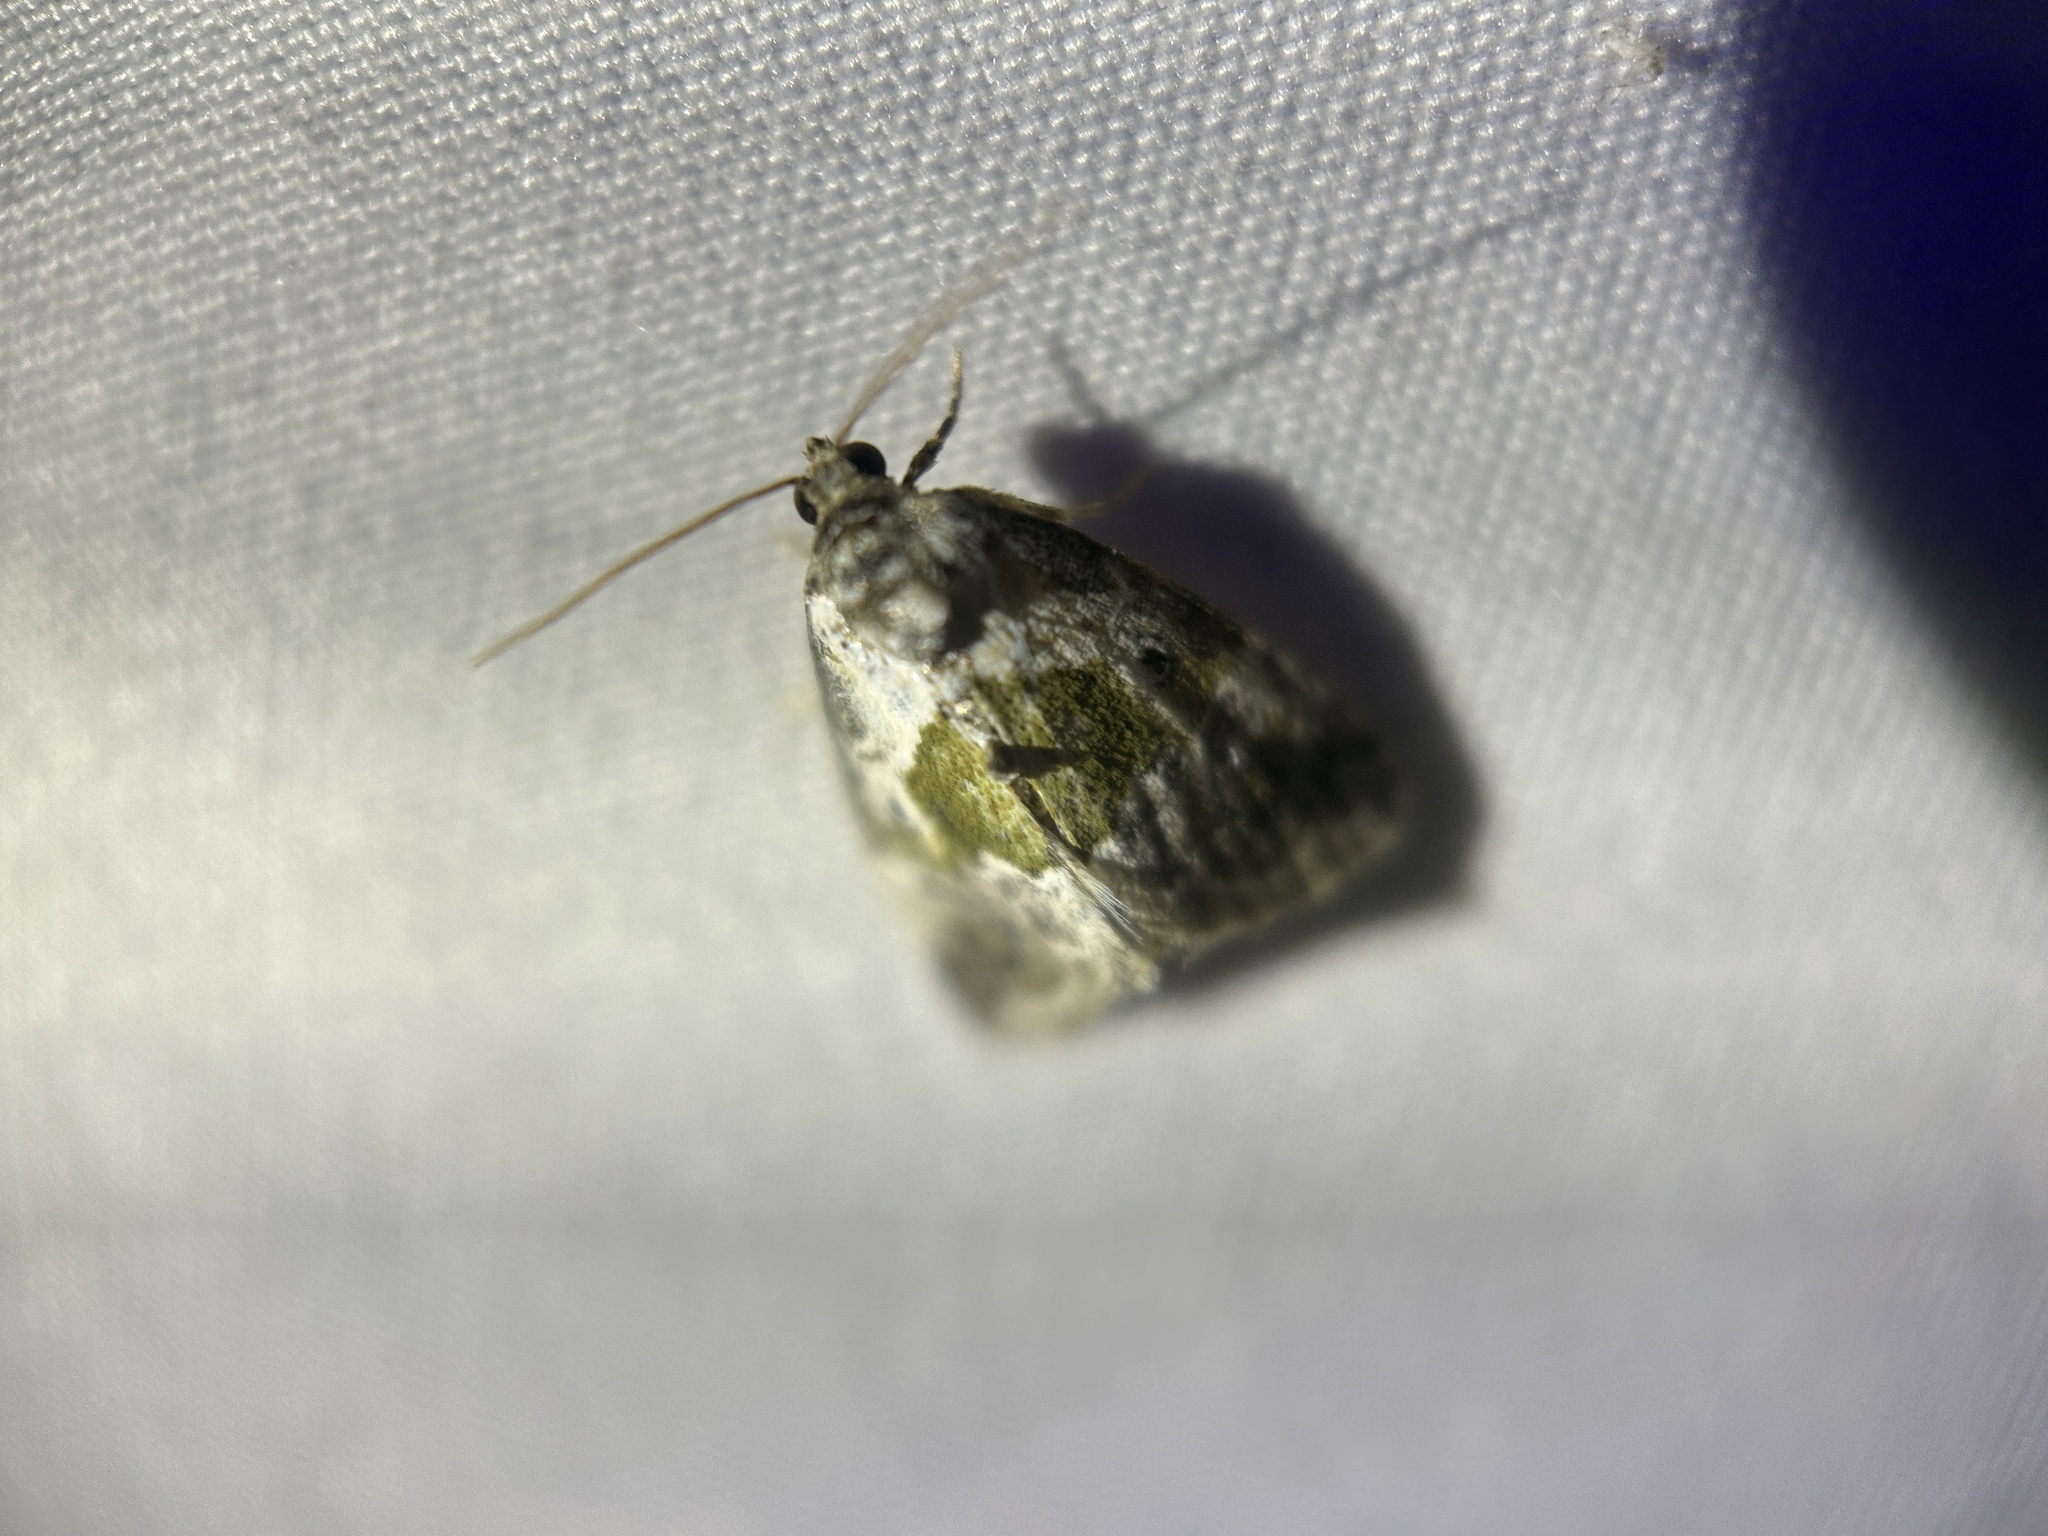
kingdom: Animalia
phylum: Arthropoda
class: Insecta
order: Lepidoptera
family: Noctuidae
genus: Maliattha
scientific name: Maliattha synochitis
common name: Black-dotted glyph
